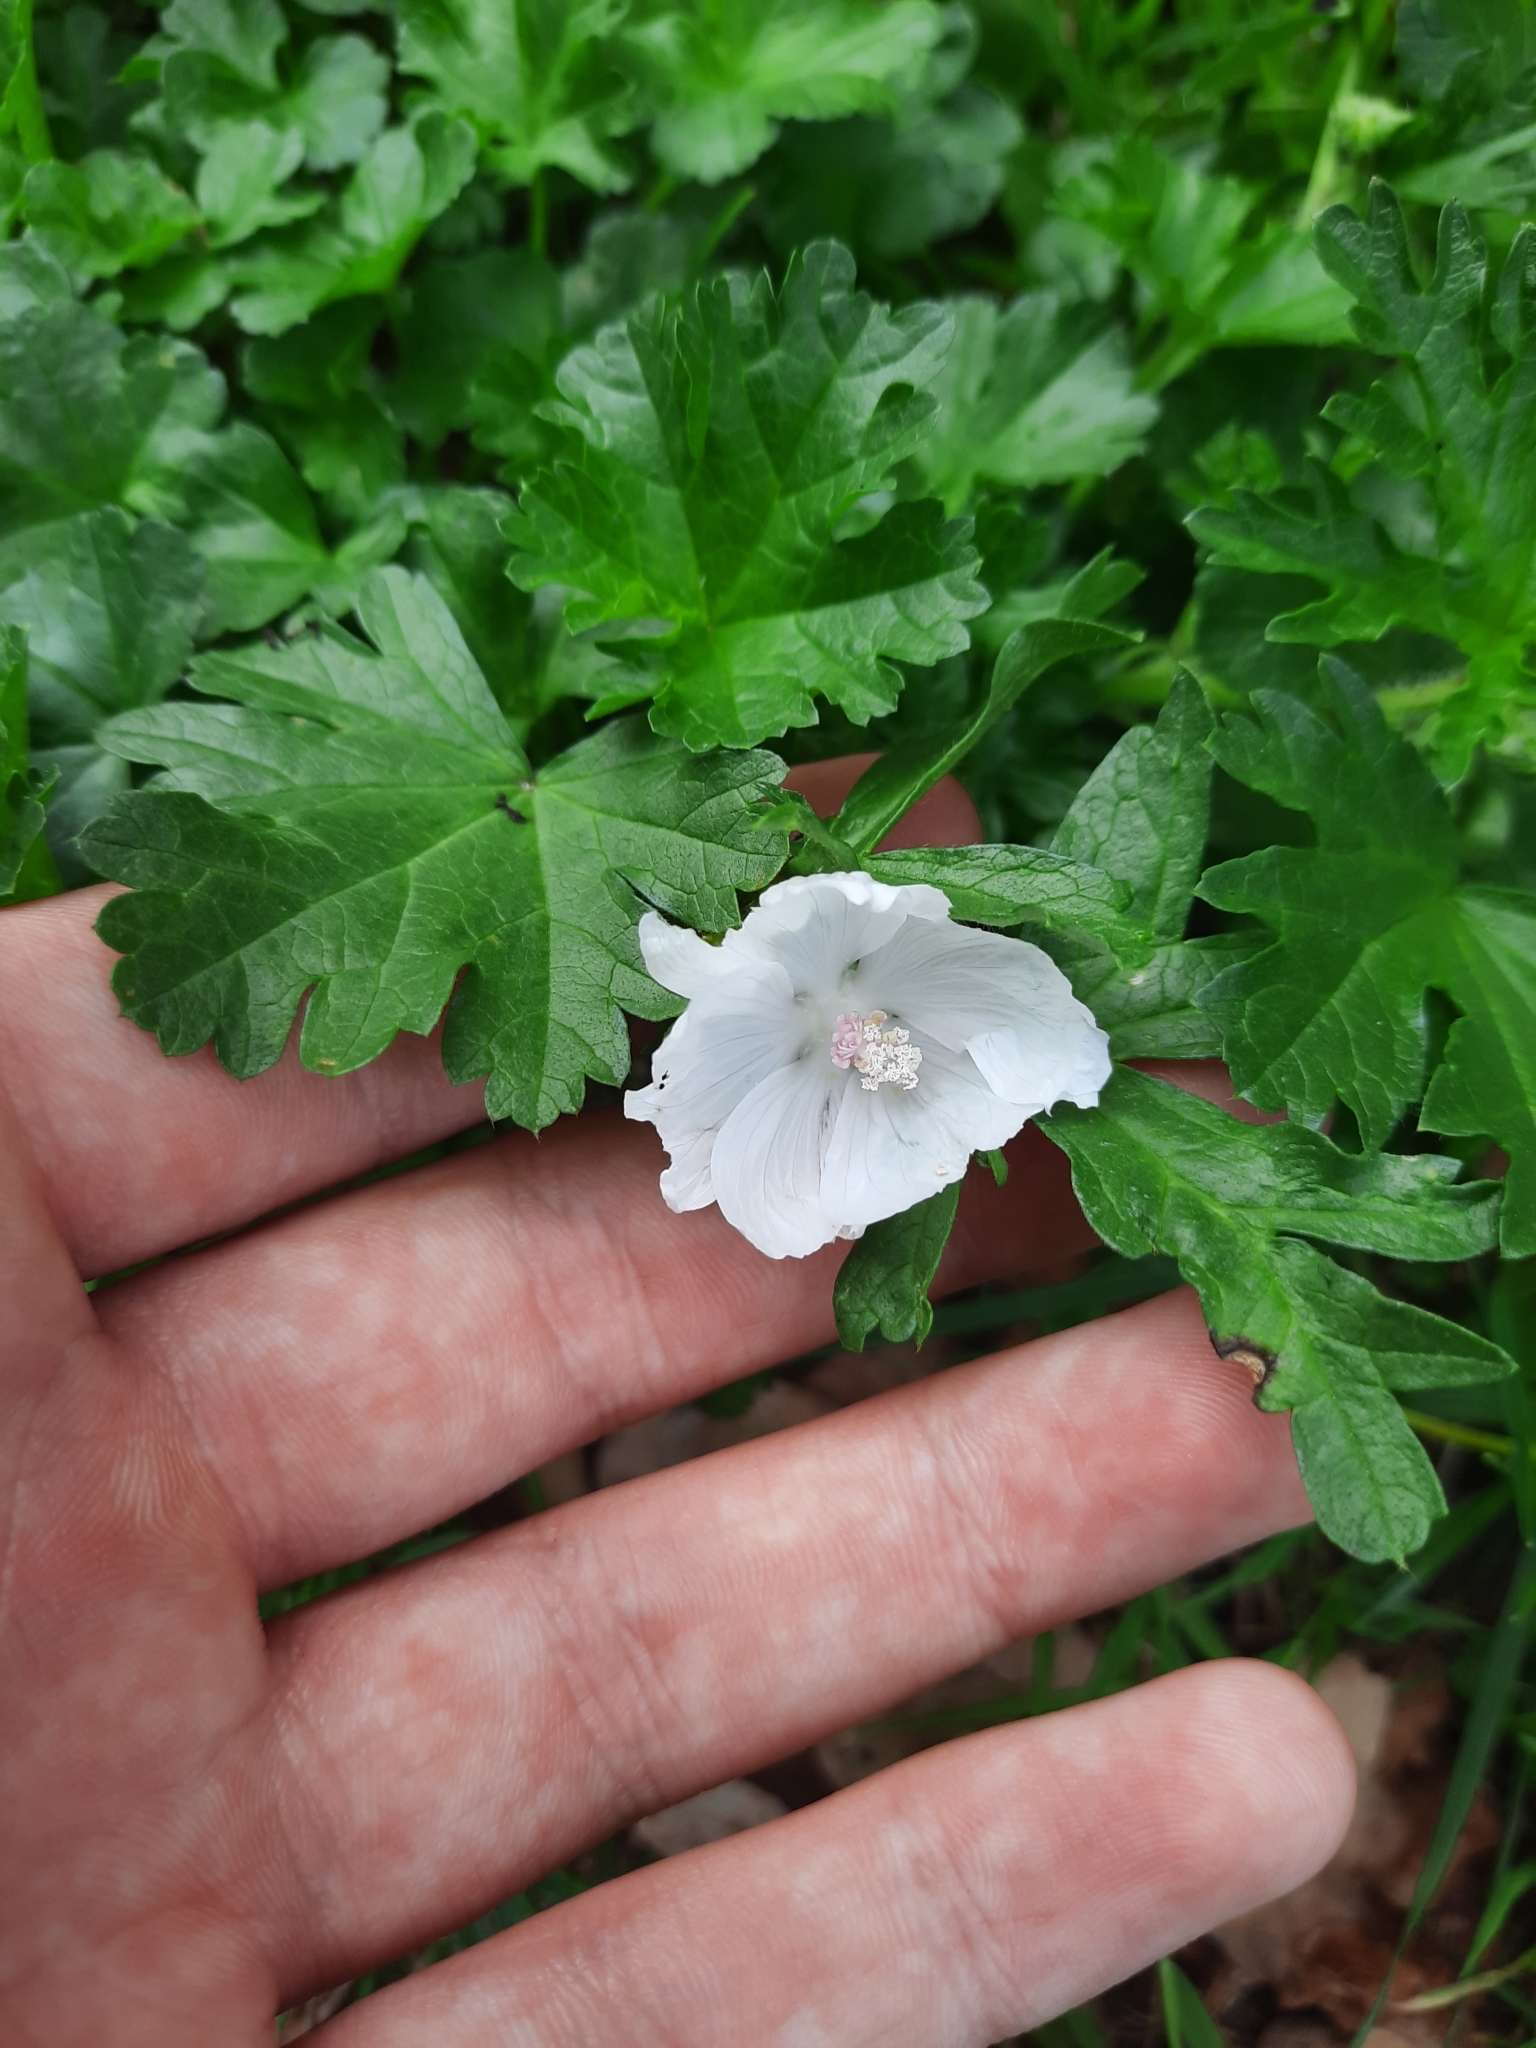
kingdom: Plantae
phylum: Tracheophyta
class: Magnoliopsida
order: Malvales
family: Malvaceae
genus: Malva
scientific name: Malva moschata
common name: Musk mallow
